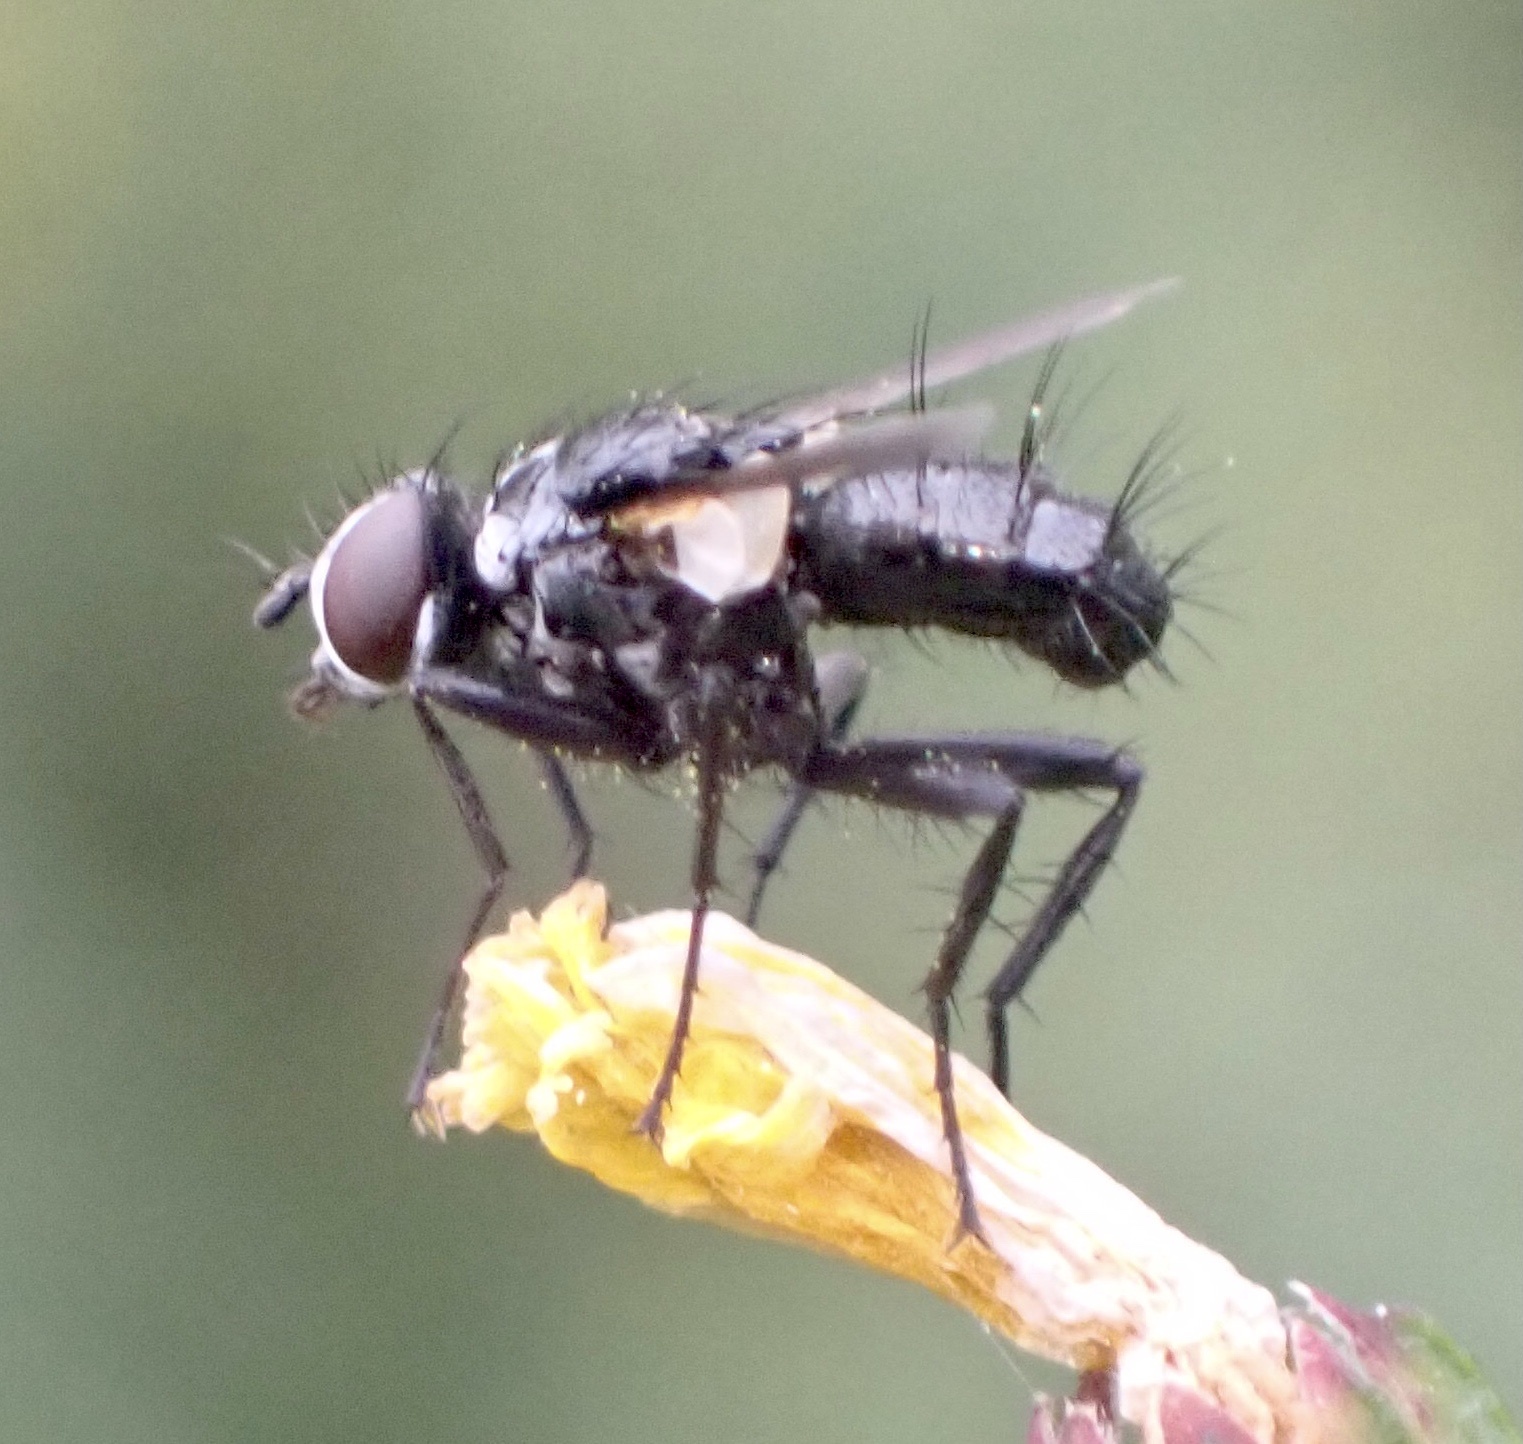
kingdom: Animalia
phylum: Arthropoda
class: Insecta
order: Diptera
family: Tachinidae
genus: Phania
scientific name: Phania funesta
